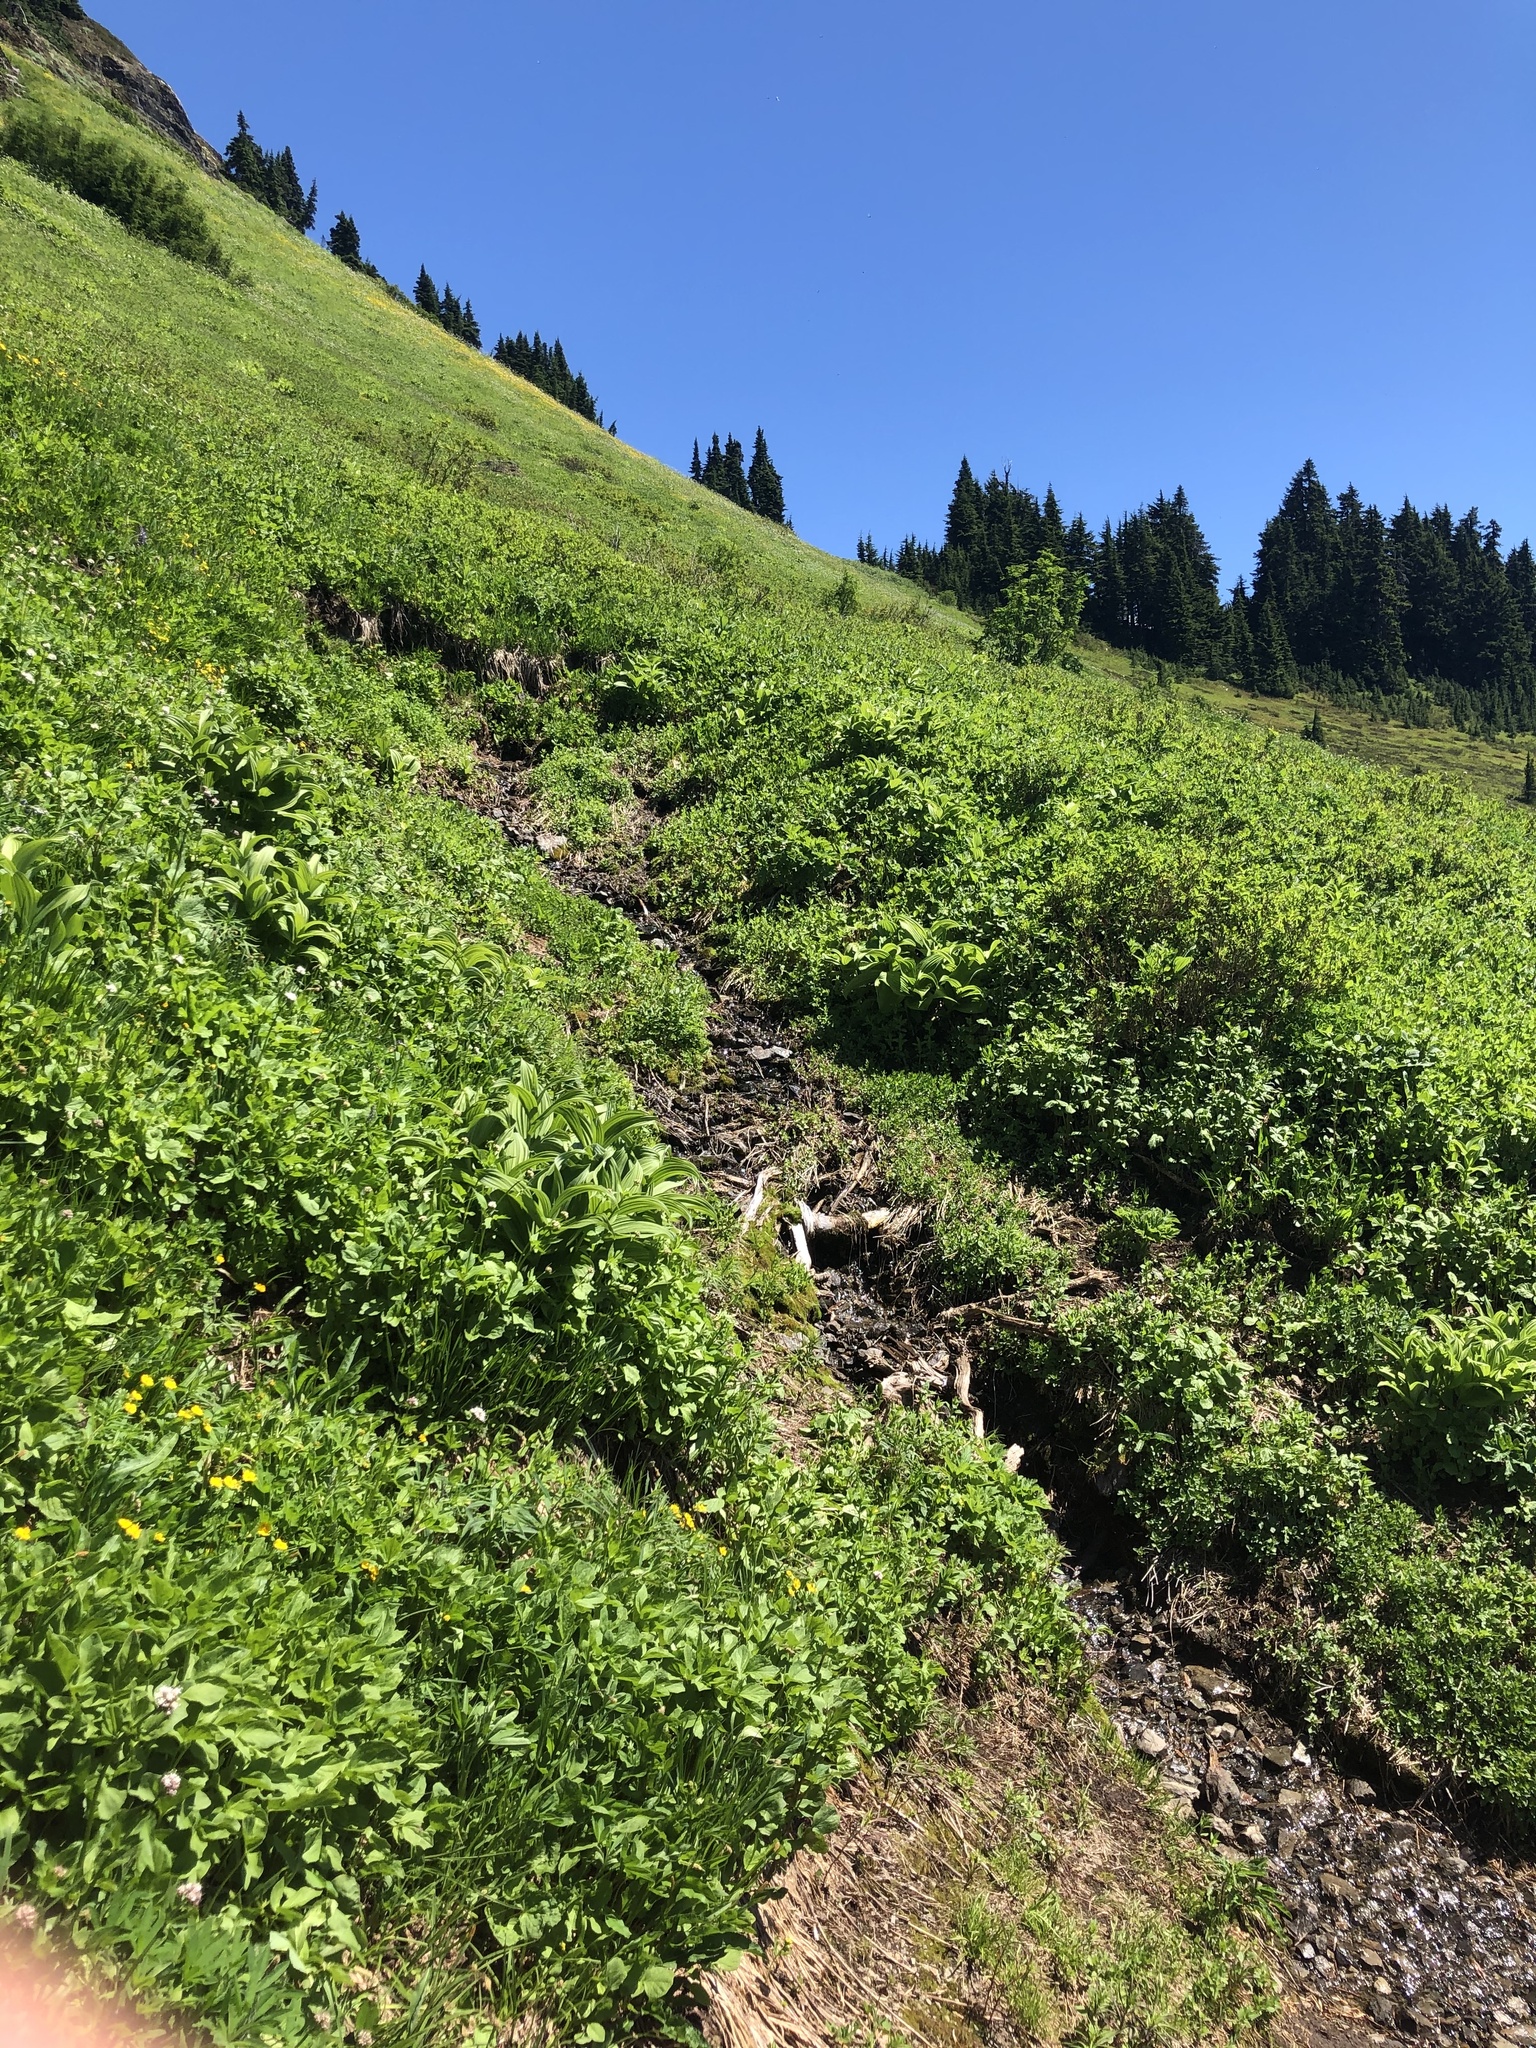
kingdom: Plantae
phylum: Tracheophyta
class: Liliopsida
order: Liliales
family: Melanthiaceae
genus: Veratrum
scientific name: Veratrum viride
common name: American false hellebore
